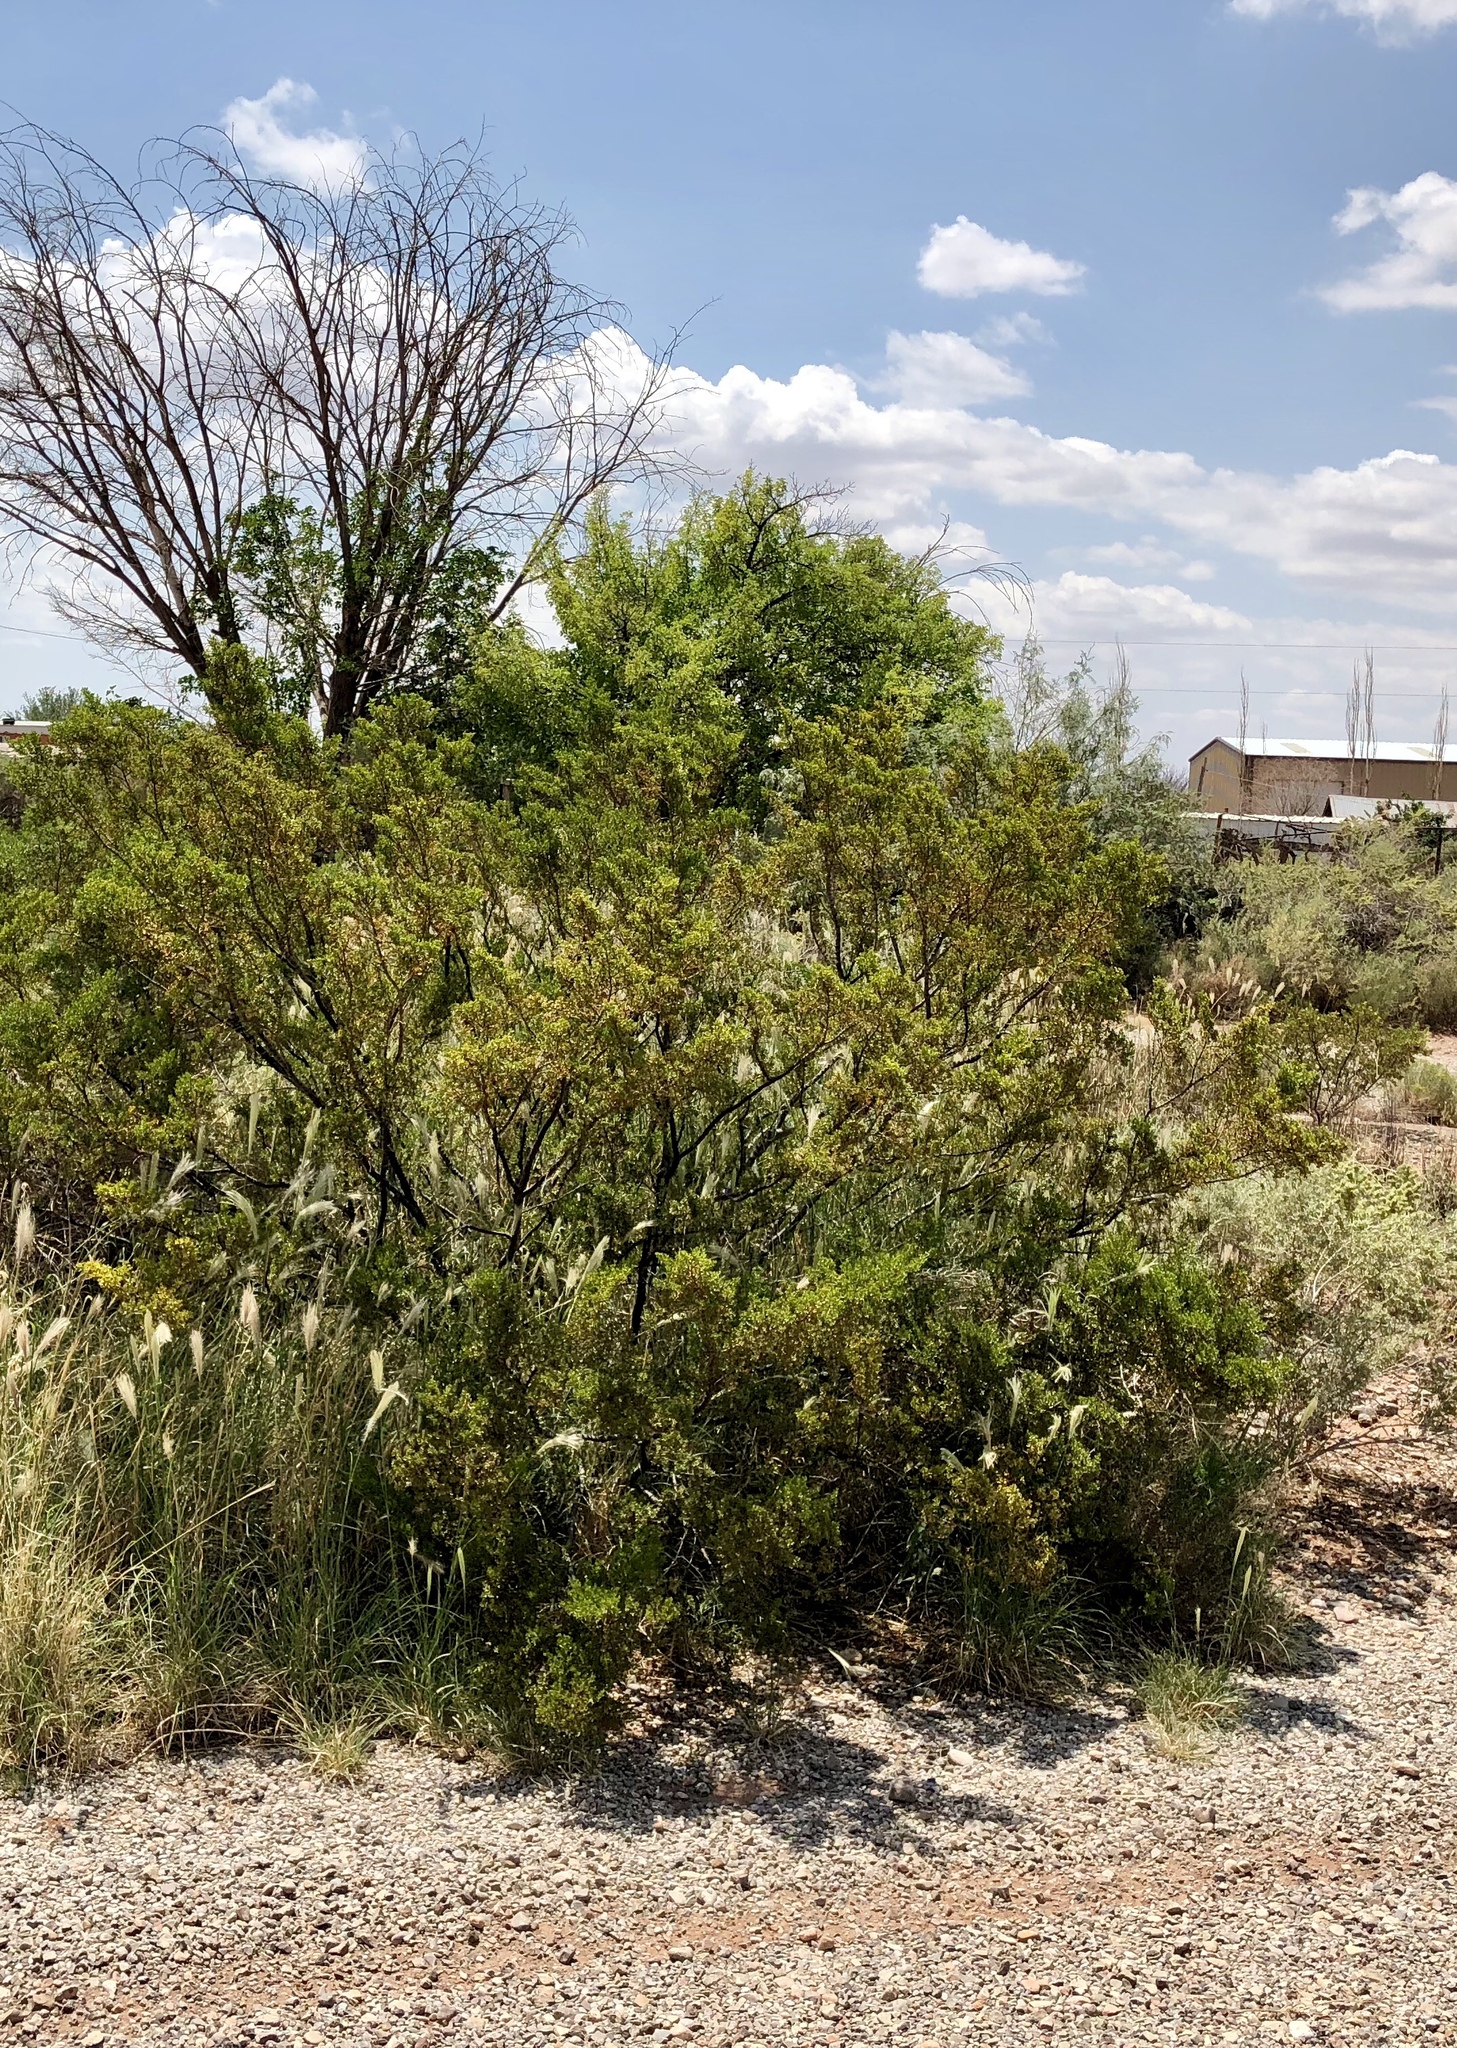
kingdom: Plantae
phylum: Tracheophyta
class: Magnoliopsida
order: Zygophyllales
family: Zygophyllaceae
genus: Larrea
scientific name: Larrea tridentata
